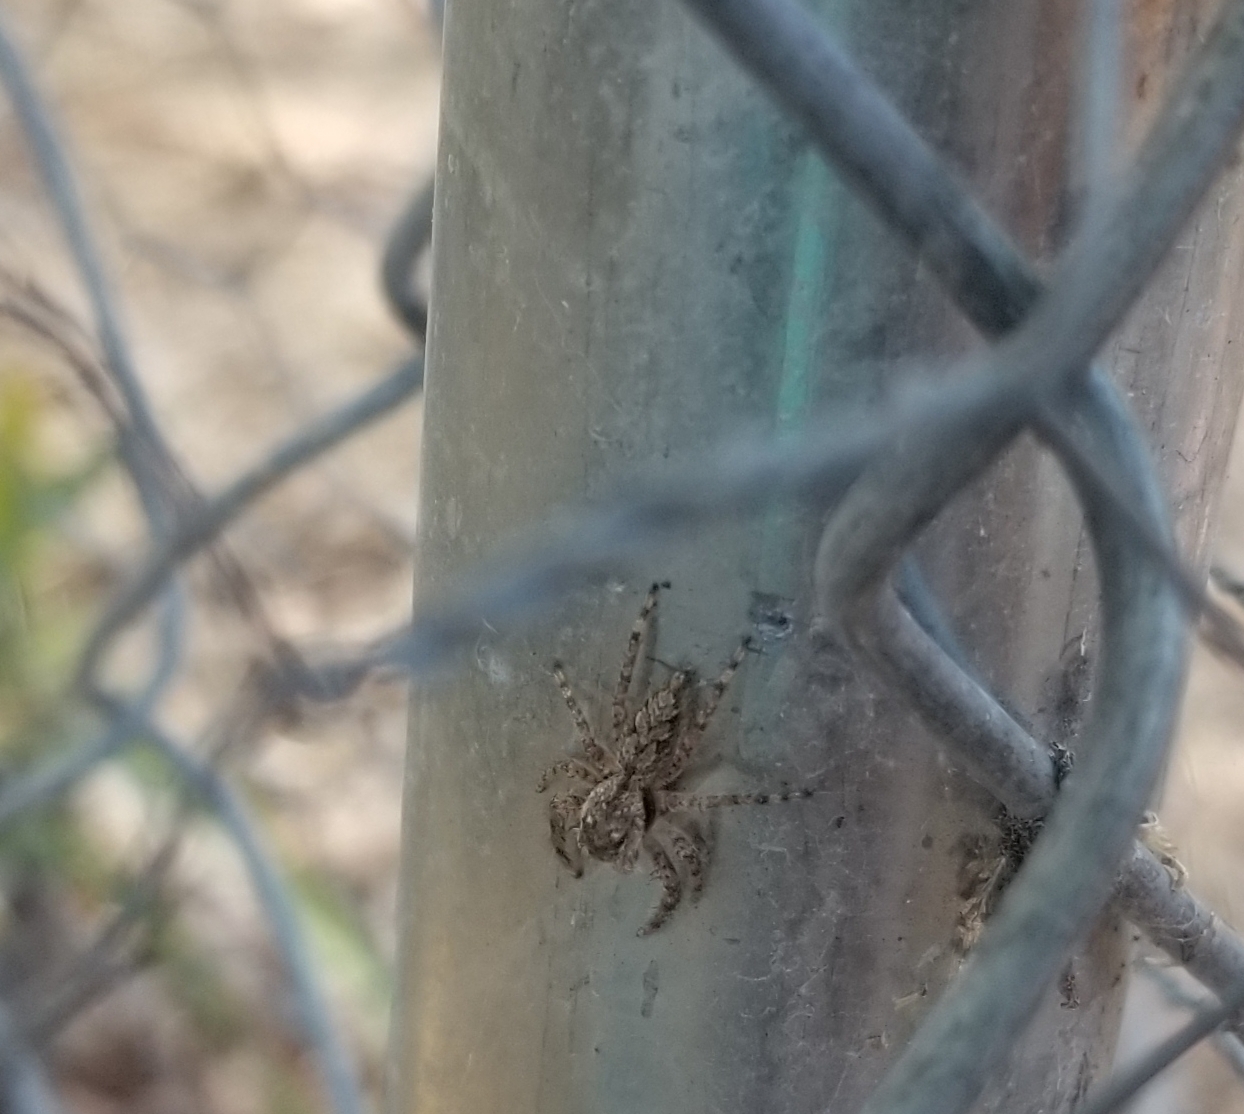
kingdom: Animalia
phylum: Arthropoda
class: Arachnida
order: Araneae
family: Salticidae
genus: Platycryptus
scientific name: Platycryptus undatus
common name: Tan jumping spider
